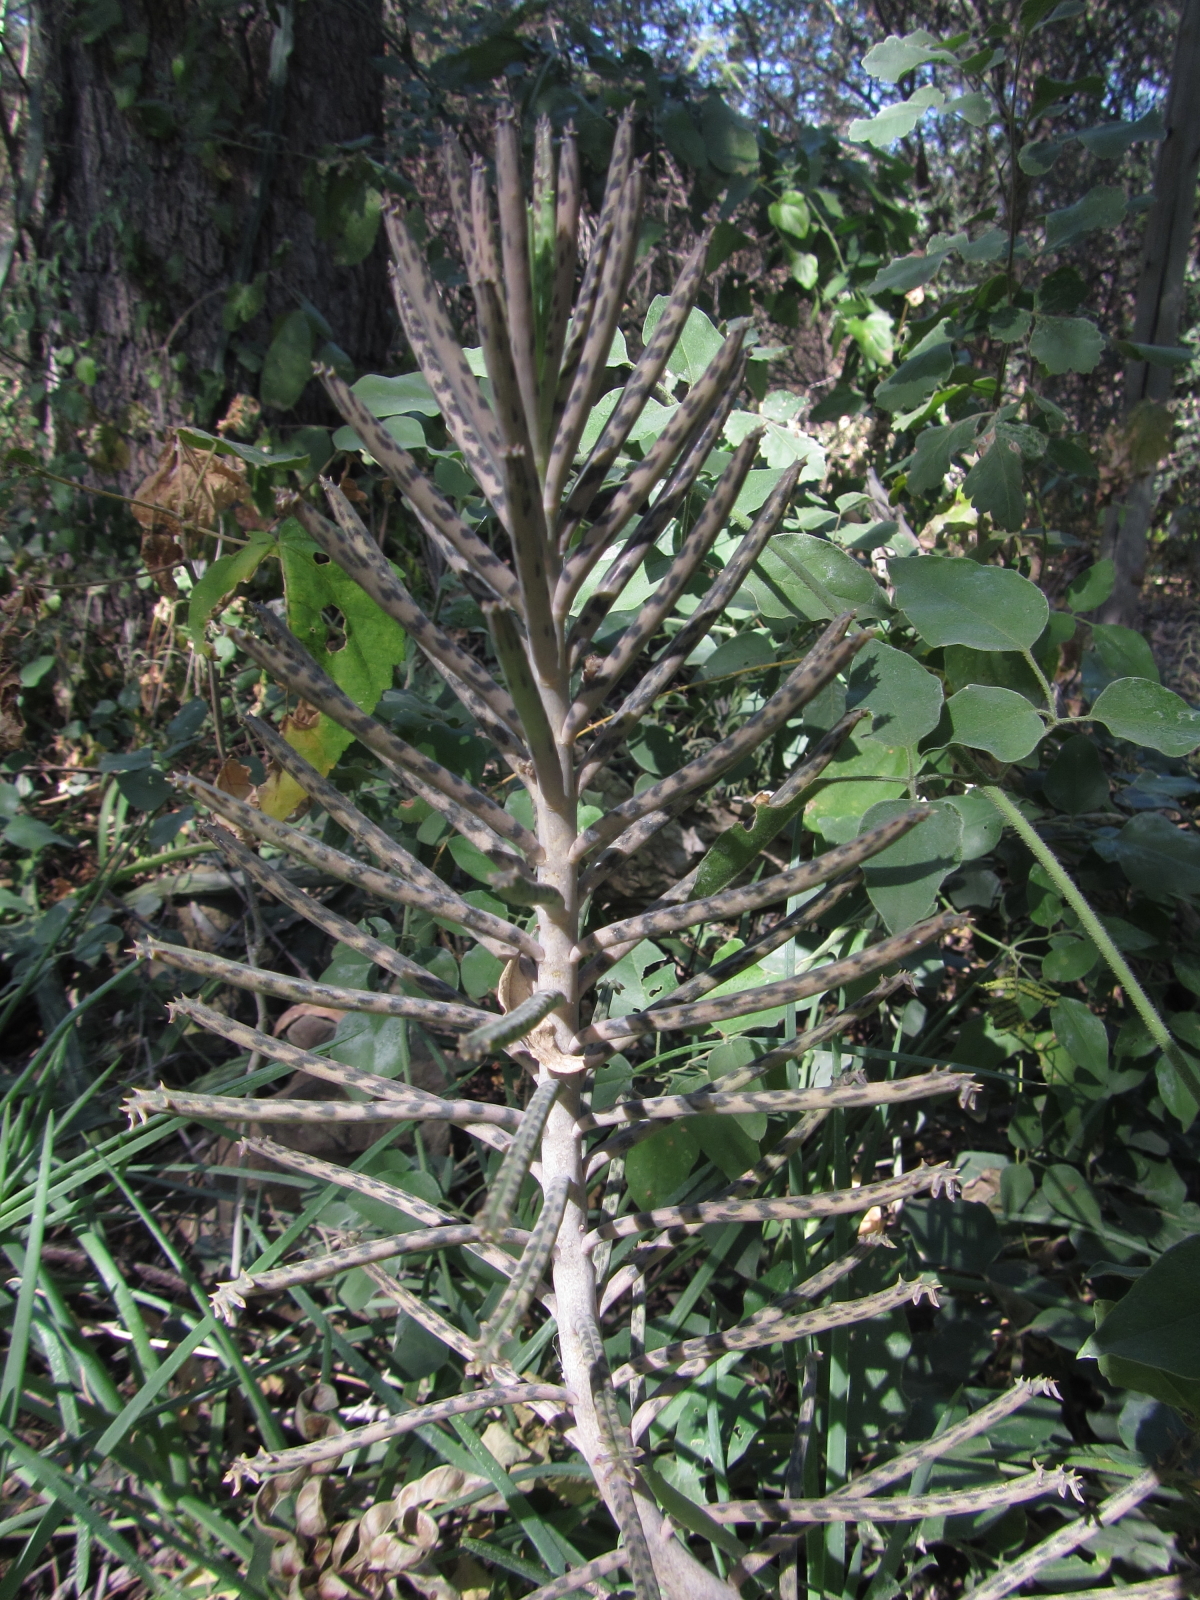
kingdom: Plantae
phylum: Tracheophyta
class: Magnoliopsida
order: Saxifragales
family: Crassulaceae
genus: Kalanchoe
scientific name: Kalanchoe delagoensis
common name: Chandelier plant
